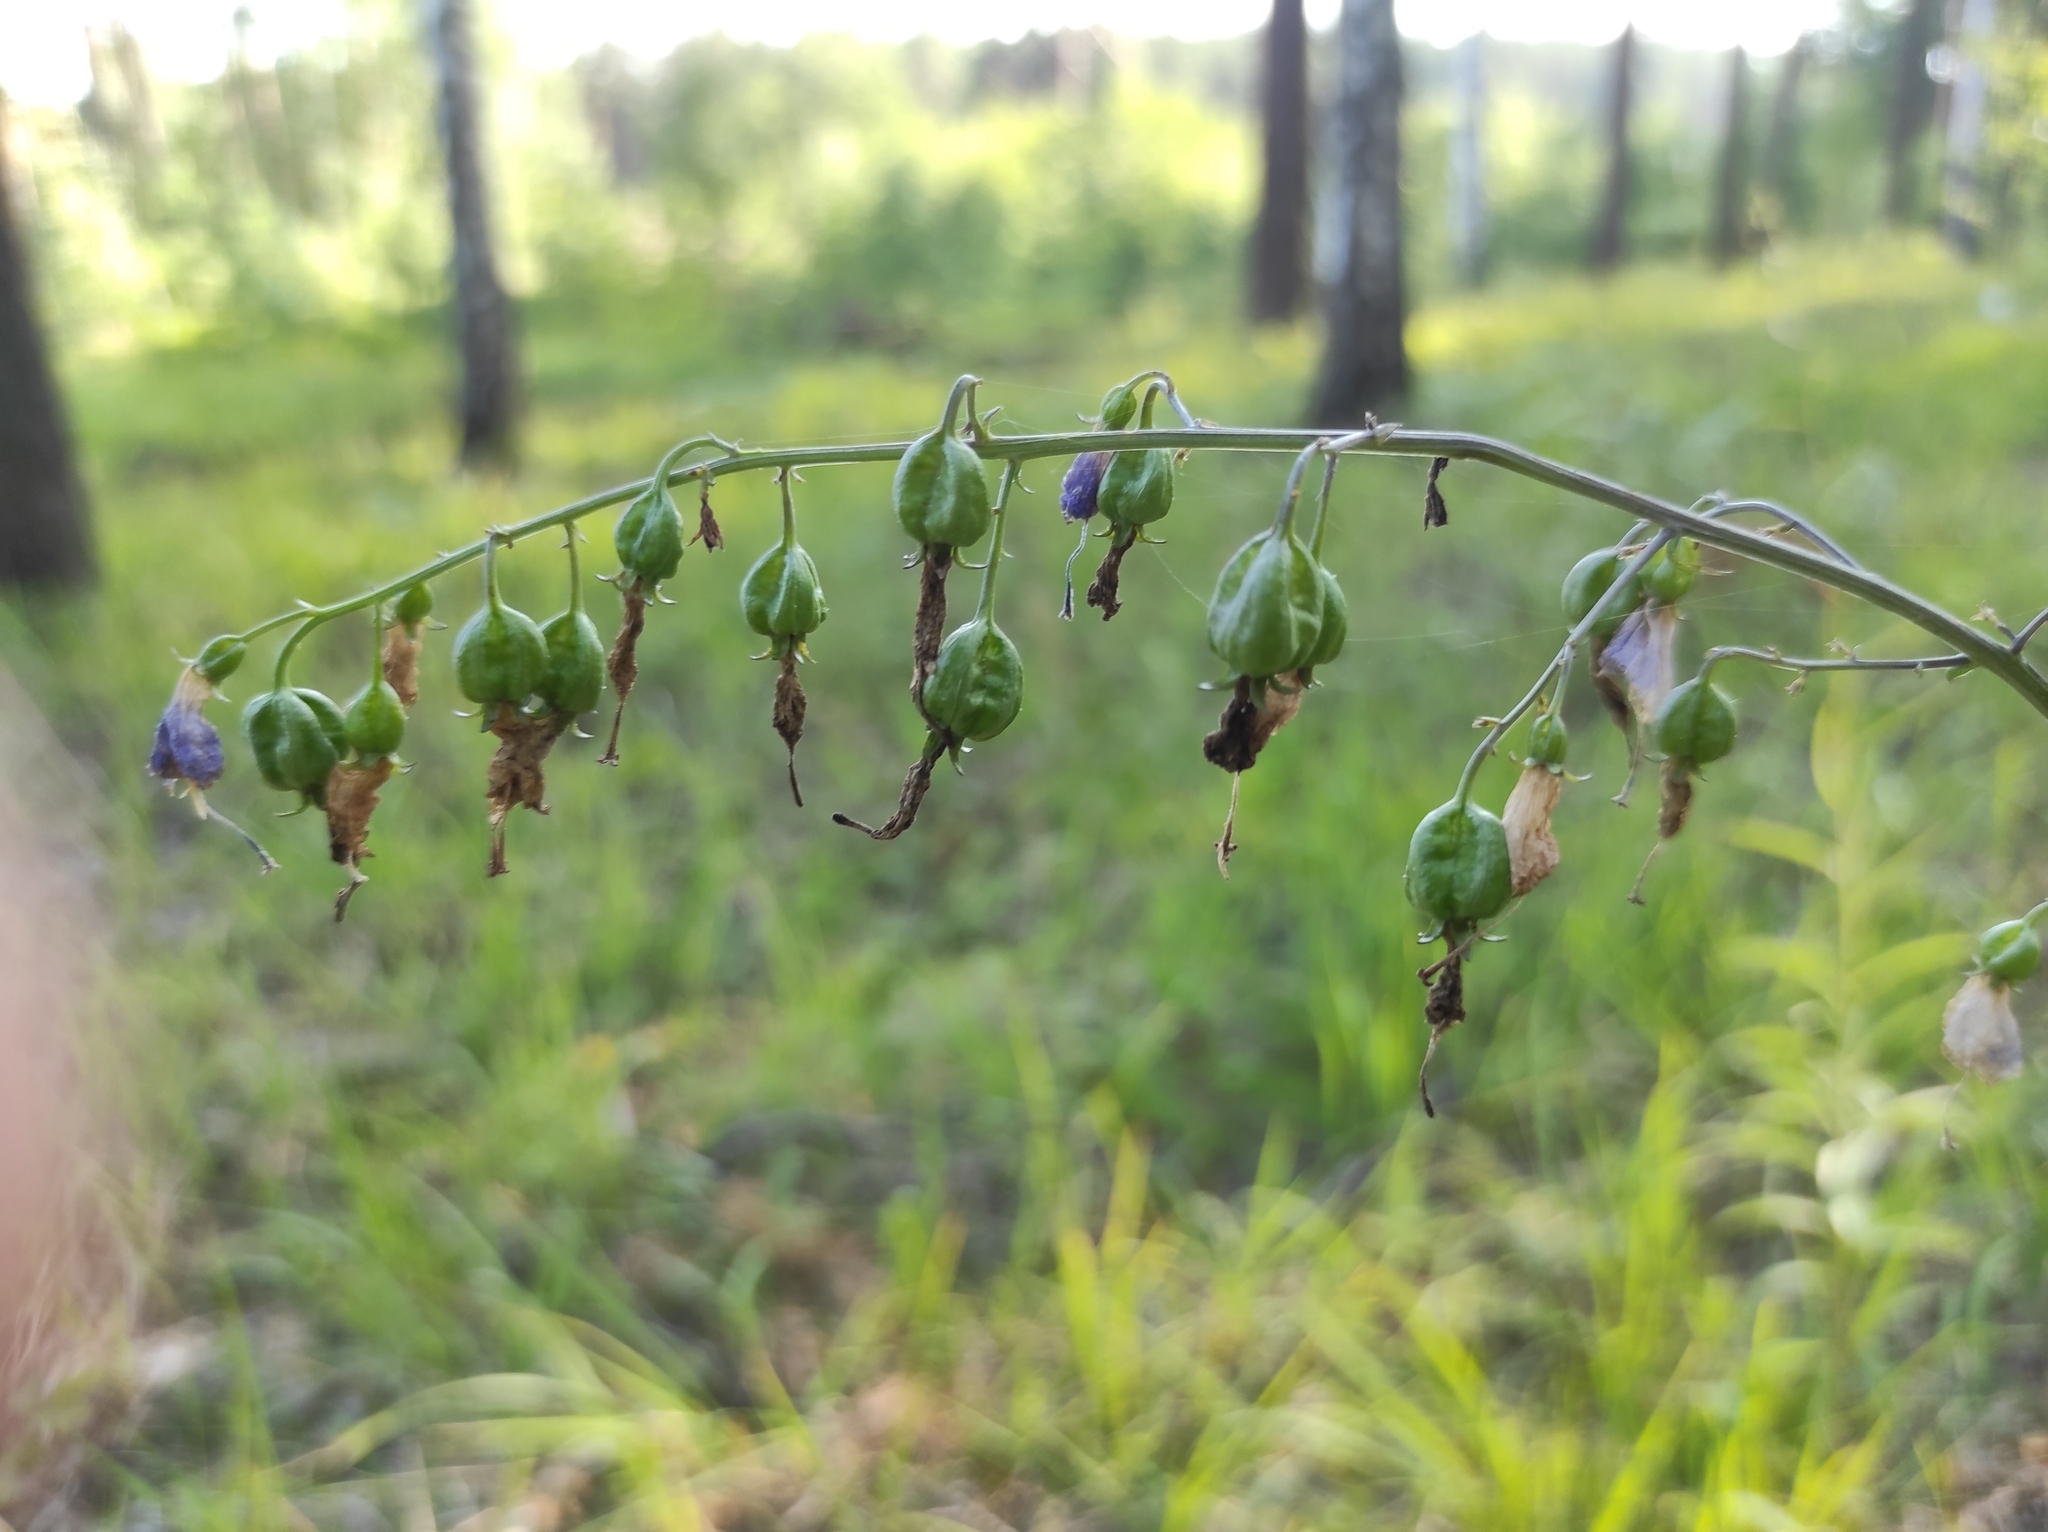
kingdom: Plantae
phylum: Tracheophyta
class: Magnoliopsida
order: Asterales
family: Campanulaceae
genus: Adenophora
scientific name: Adenophora liliifolia
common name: Lilyleaf ladybells
